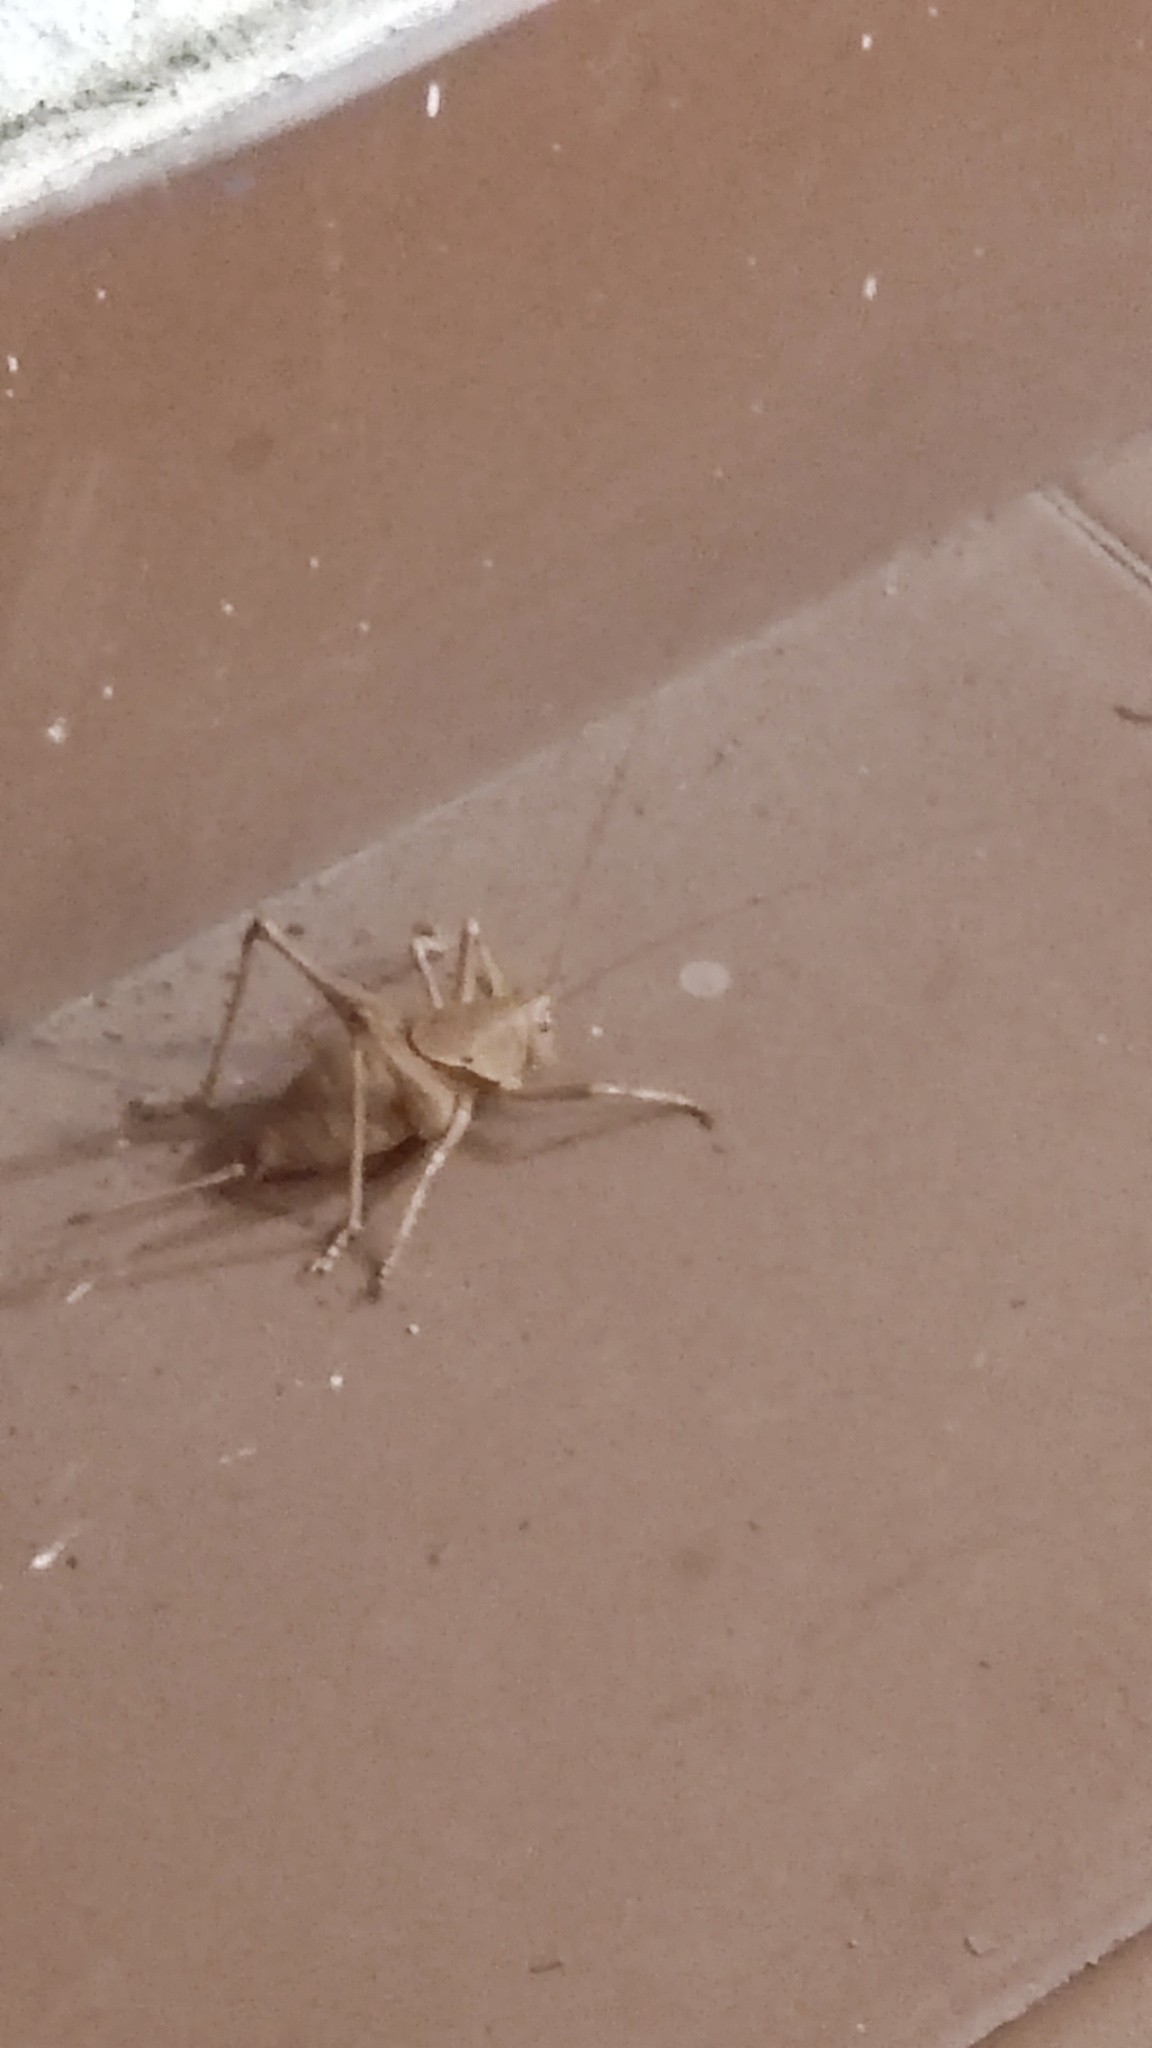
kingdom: Animalia
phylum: Arthropoda
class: Insecta
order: Orthoptera
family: Tettigoniidae
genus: Thyreonotus
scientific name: Thyreonotus bidens
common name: Two-toothed bush-cricket
